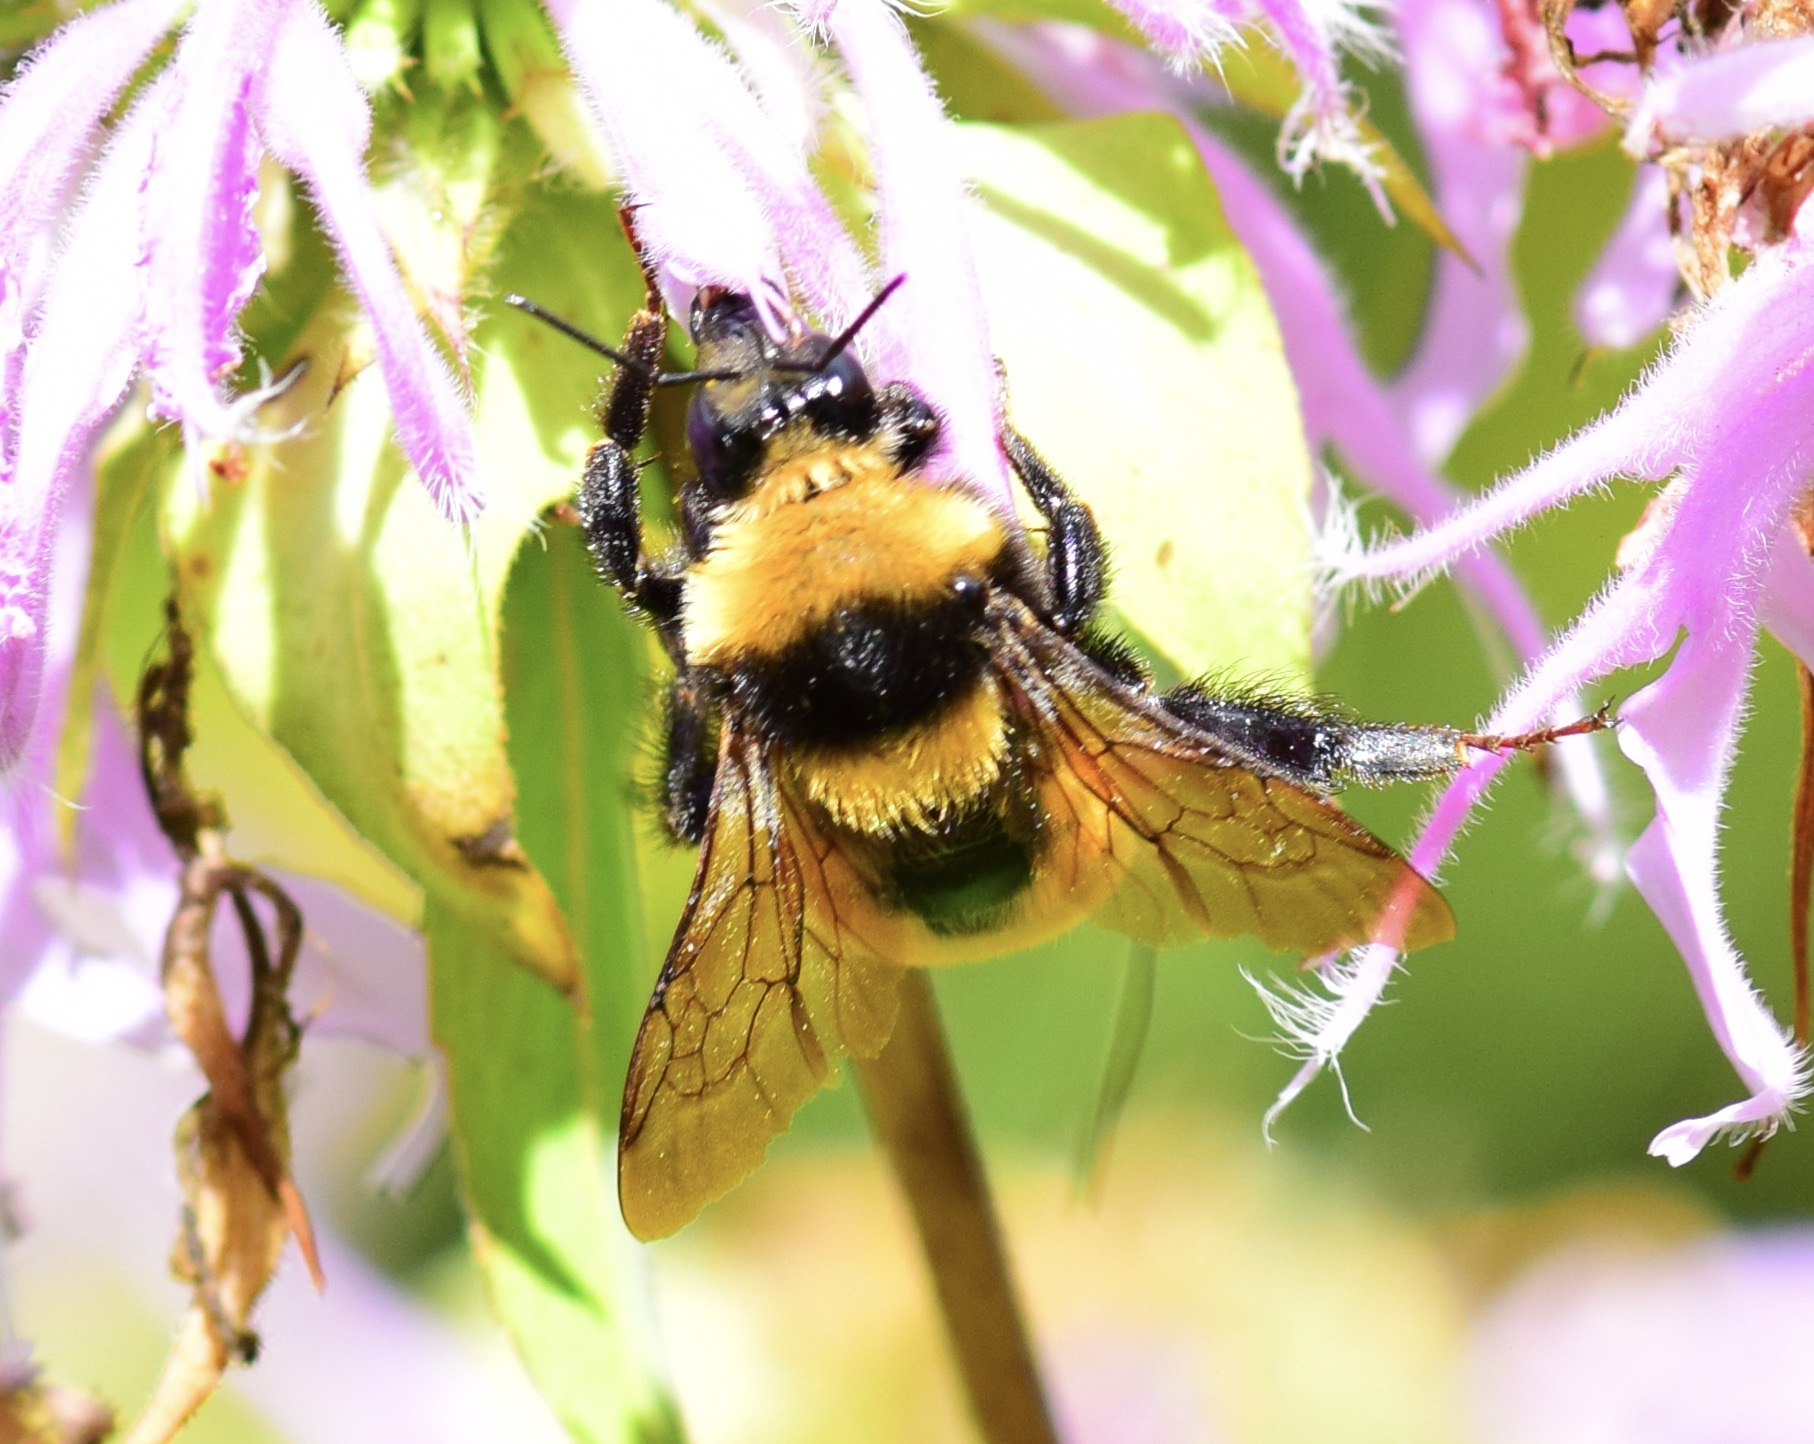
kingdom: Animalia
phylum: Arthropoda
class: Insecta
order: Hymenoptera
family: Apidae
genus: Bombus
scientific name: Bombus borealis
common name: Northern amber bumble bee
